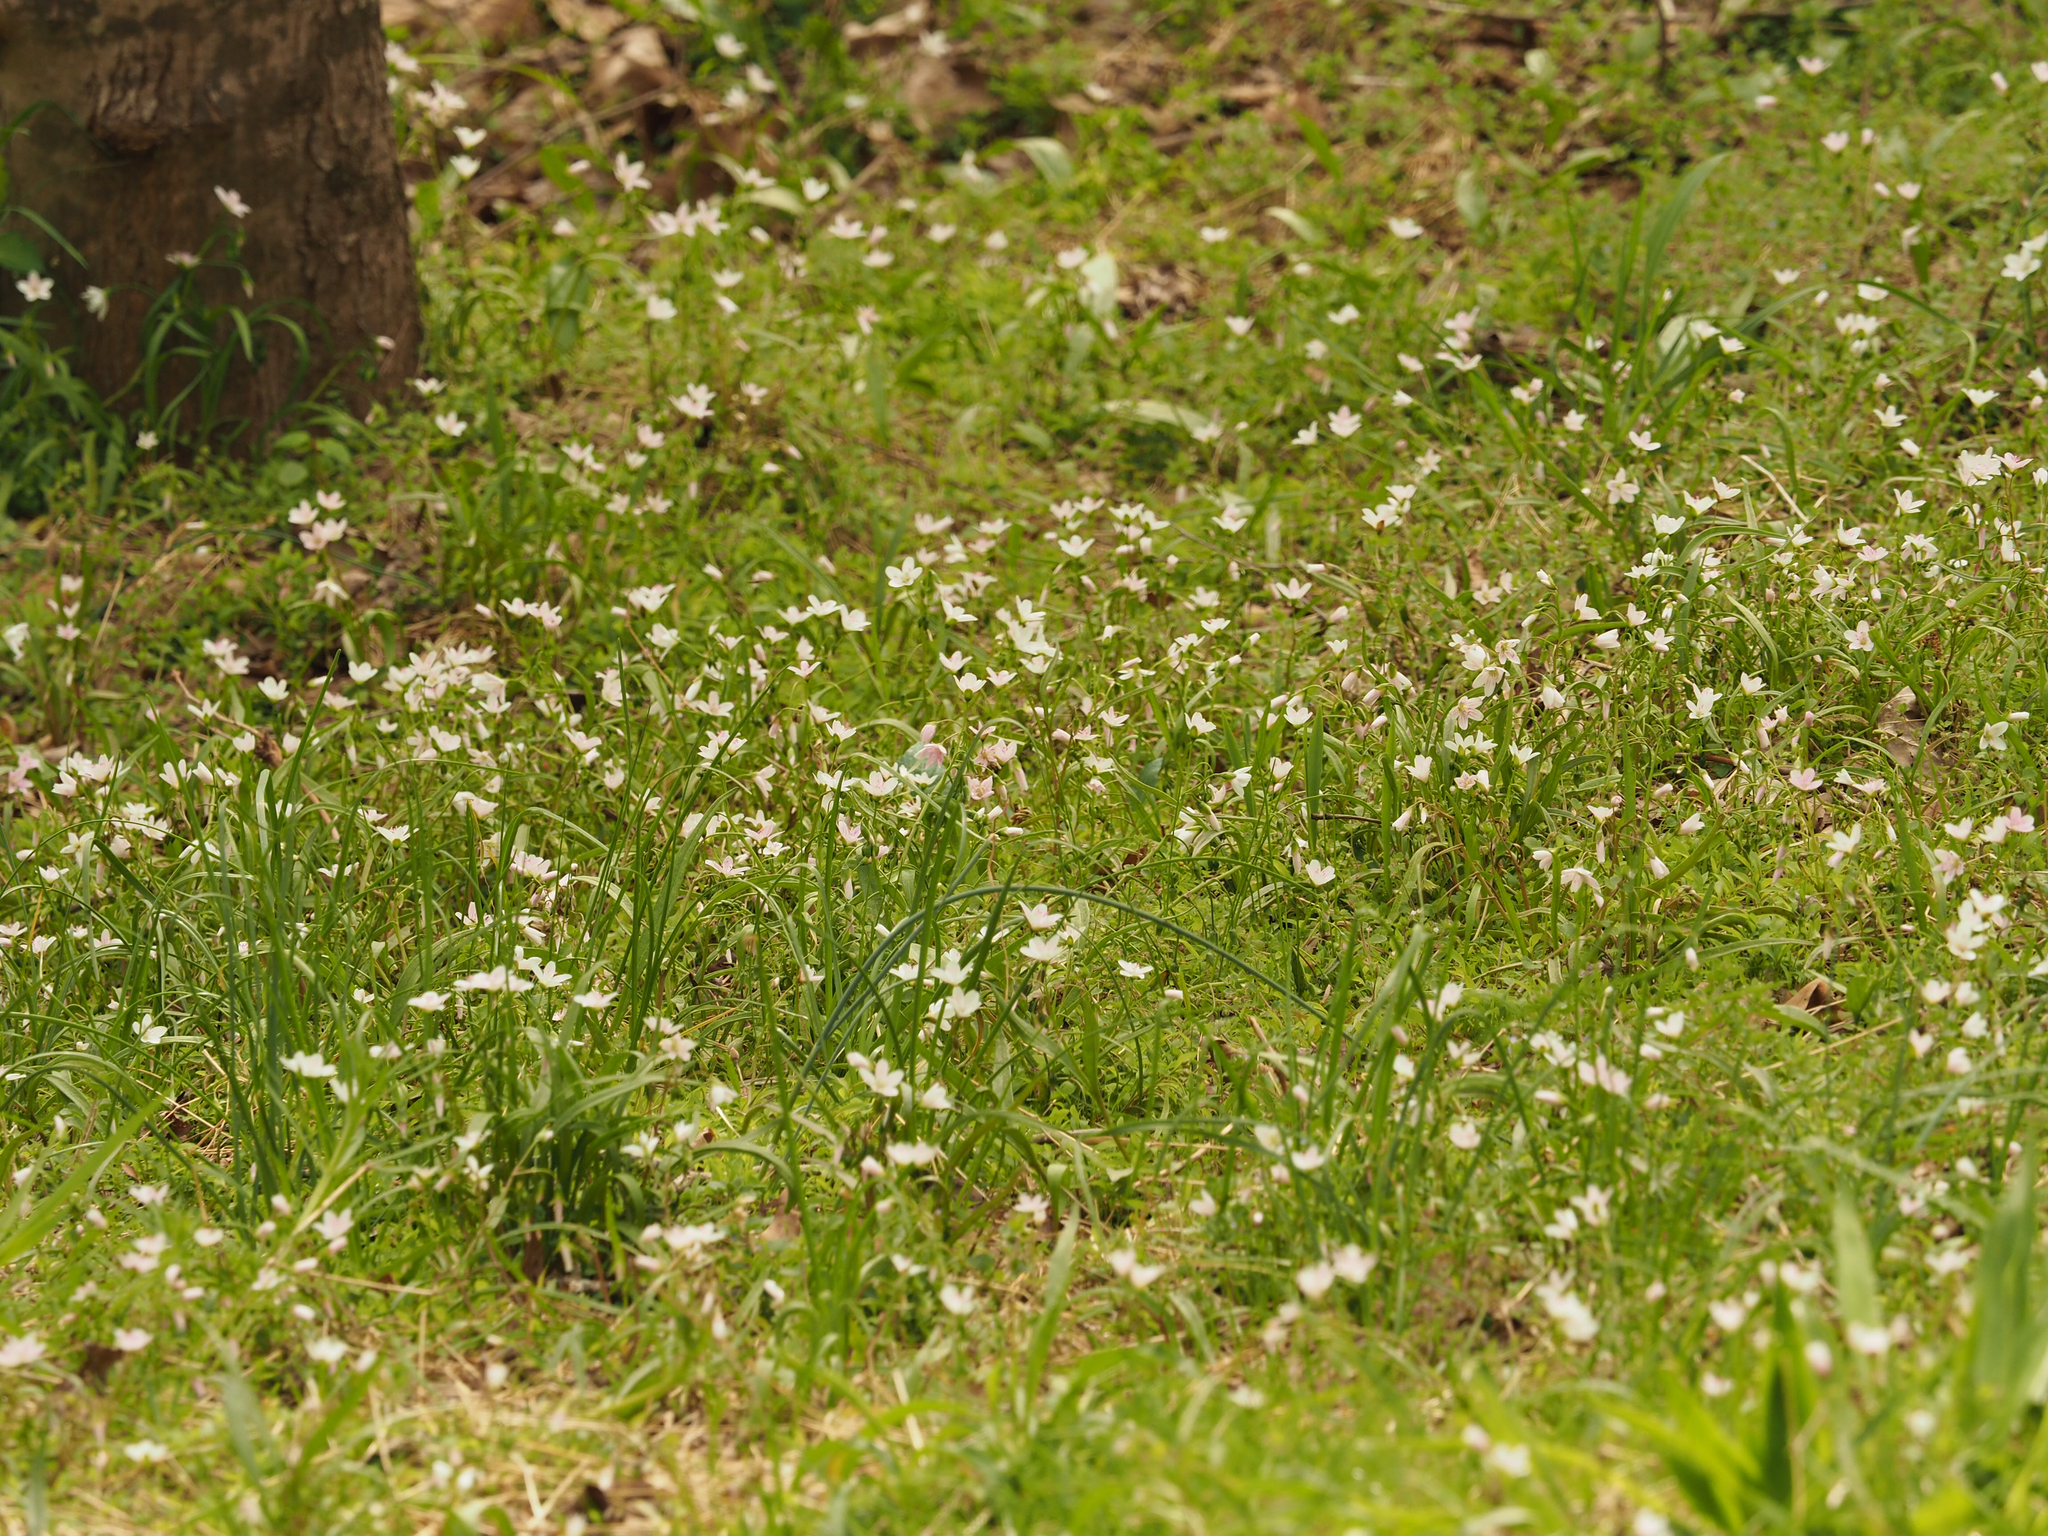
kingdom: Plantae
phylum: Tracheophyta
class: Magnoliopsida
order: Caryophyllales
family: Montiaceae
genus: Claytonia
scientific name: Claytonia virginica
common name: Virginia springbeauty
